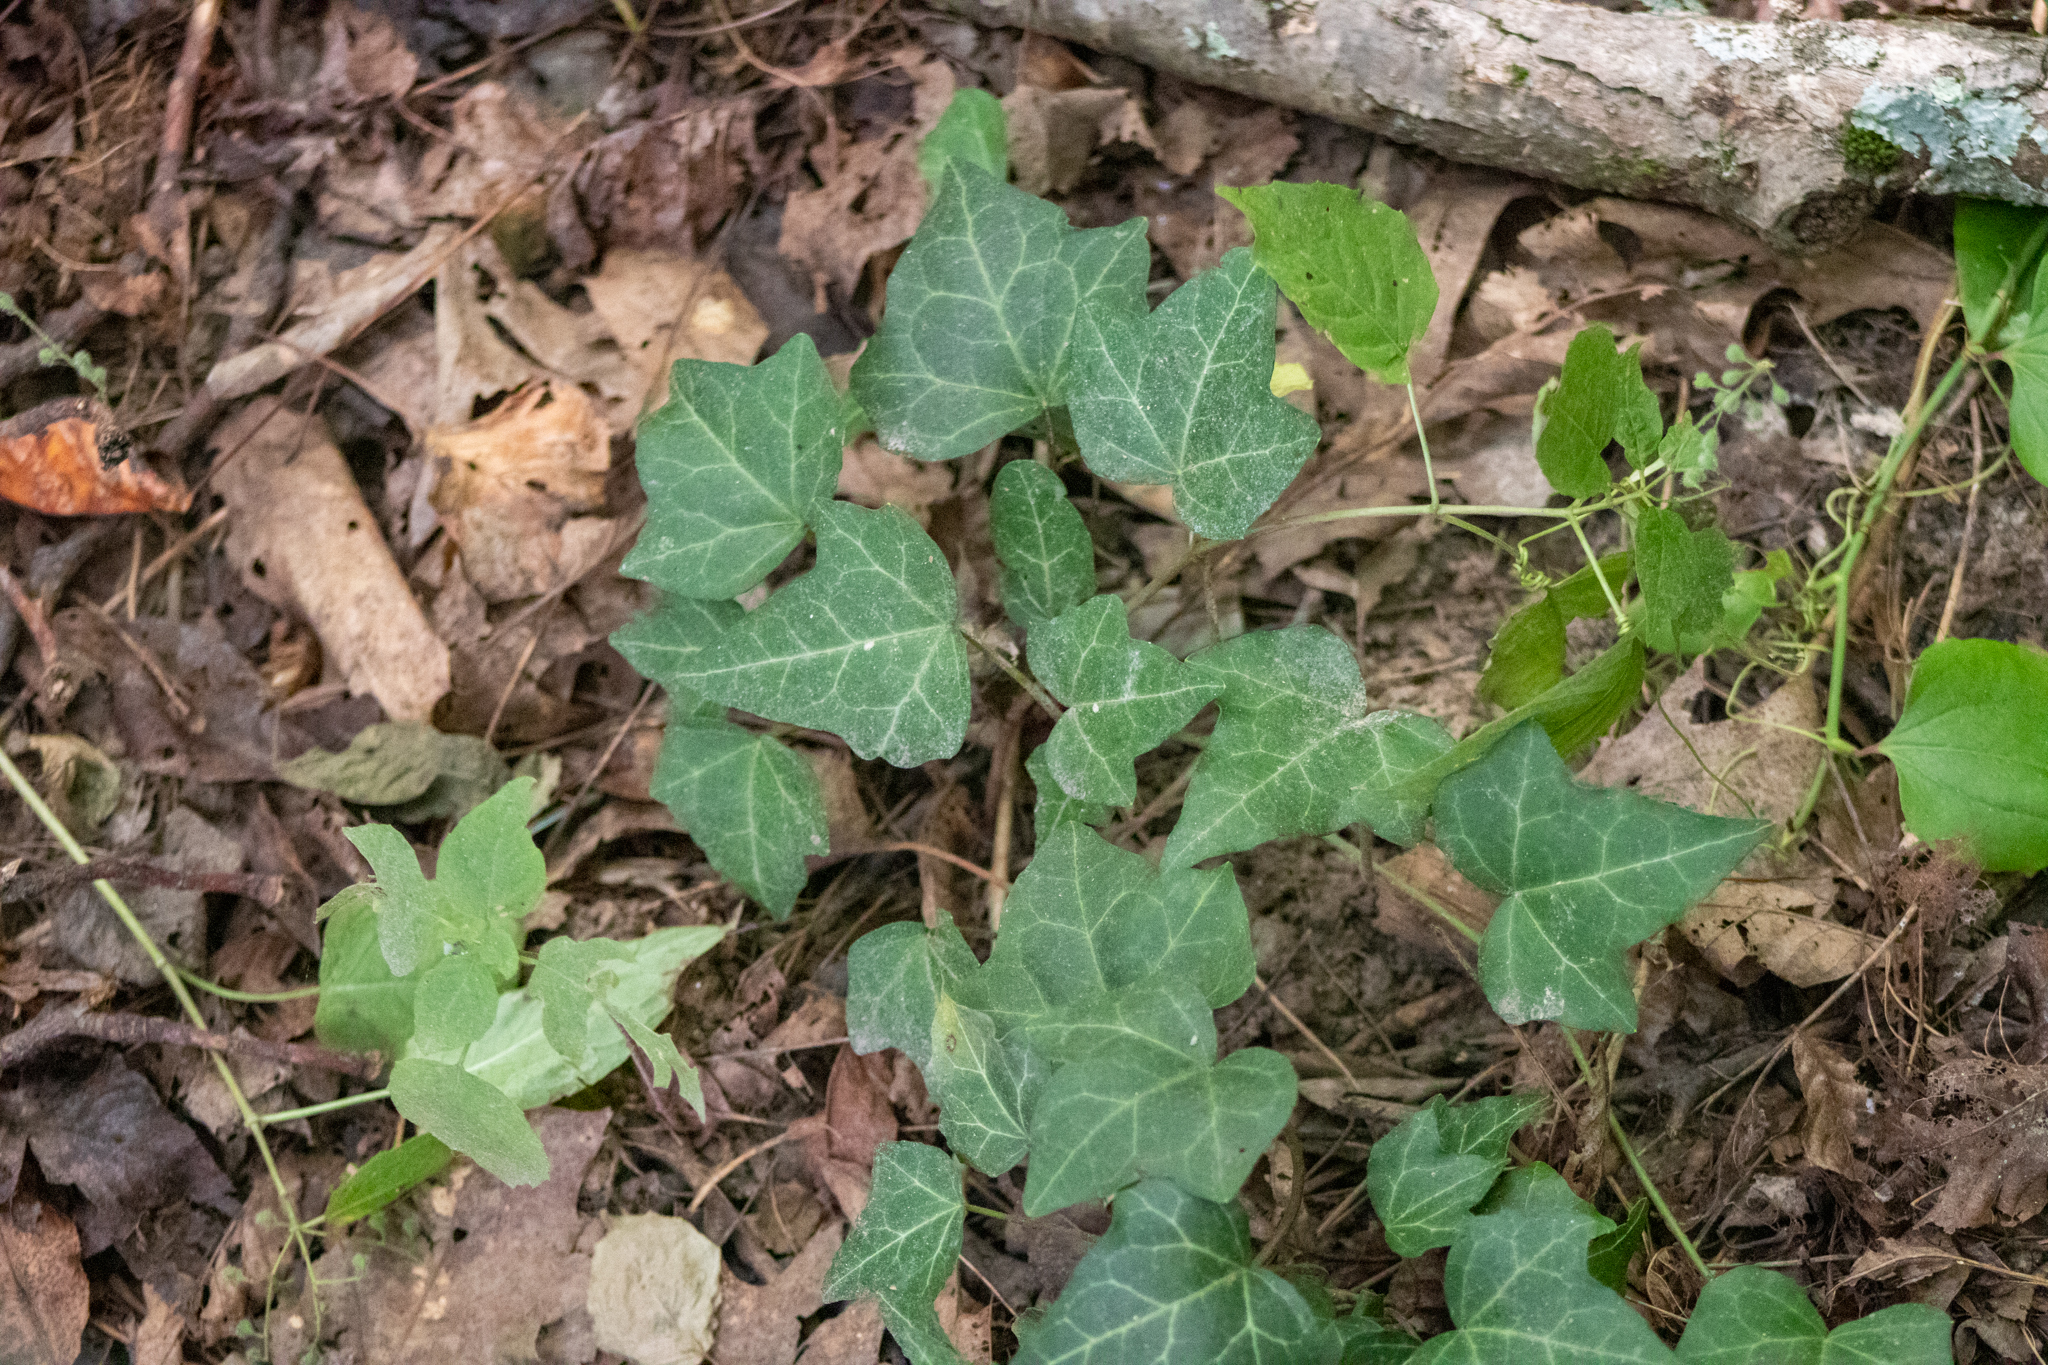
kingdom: Plantae
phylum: Tracheophyta
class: Magnoliopsida
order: Apiales
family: Araliaceae
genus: Hedera
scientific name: Hedera helix
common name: Ivy
